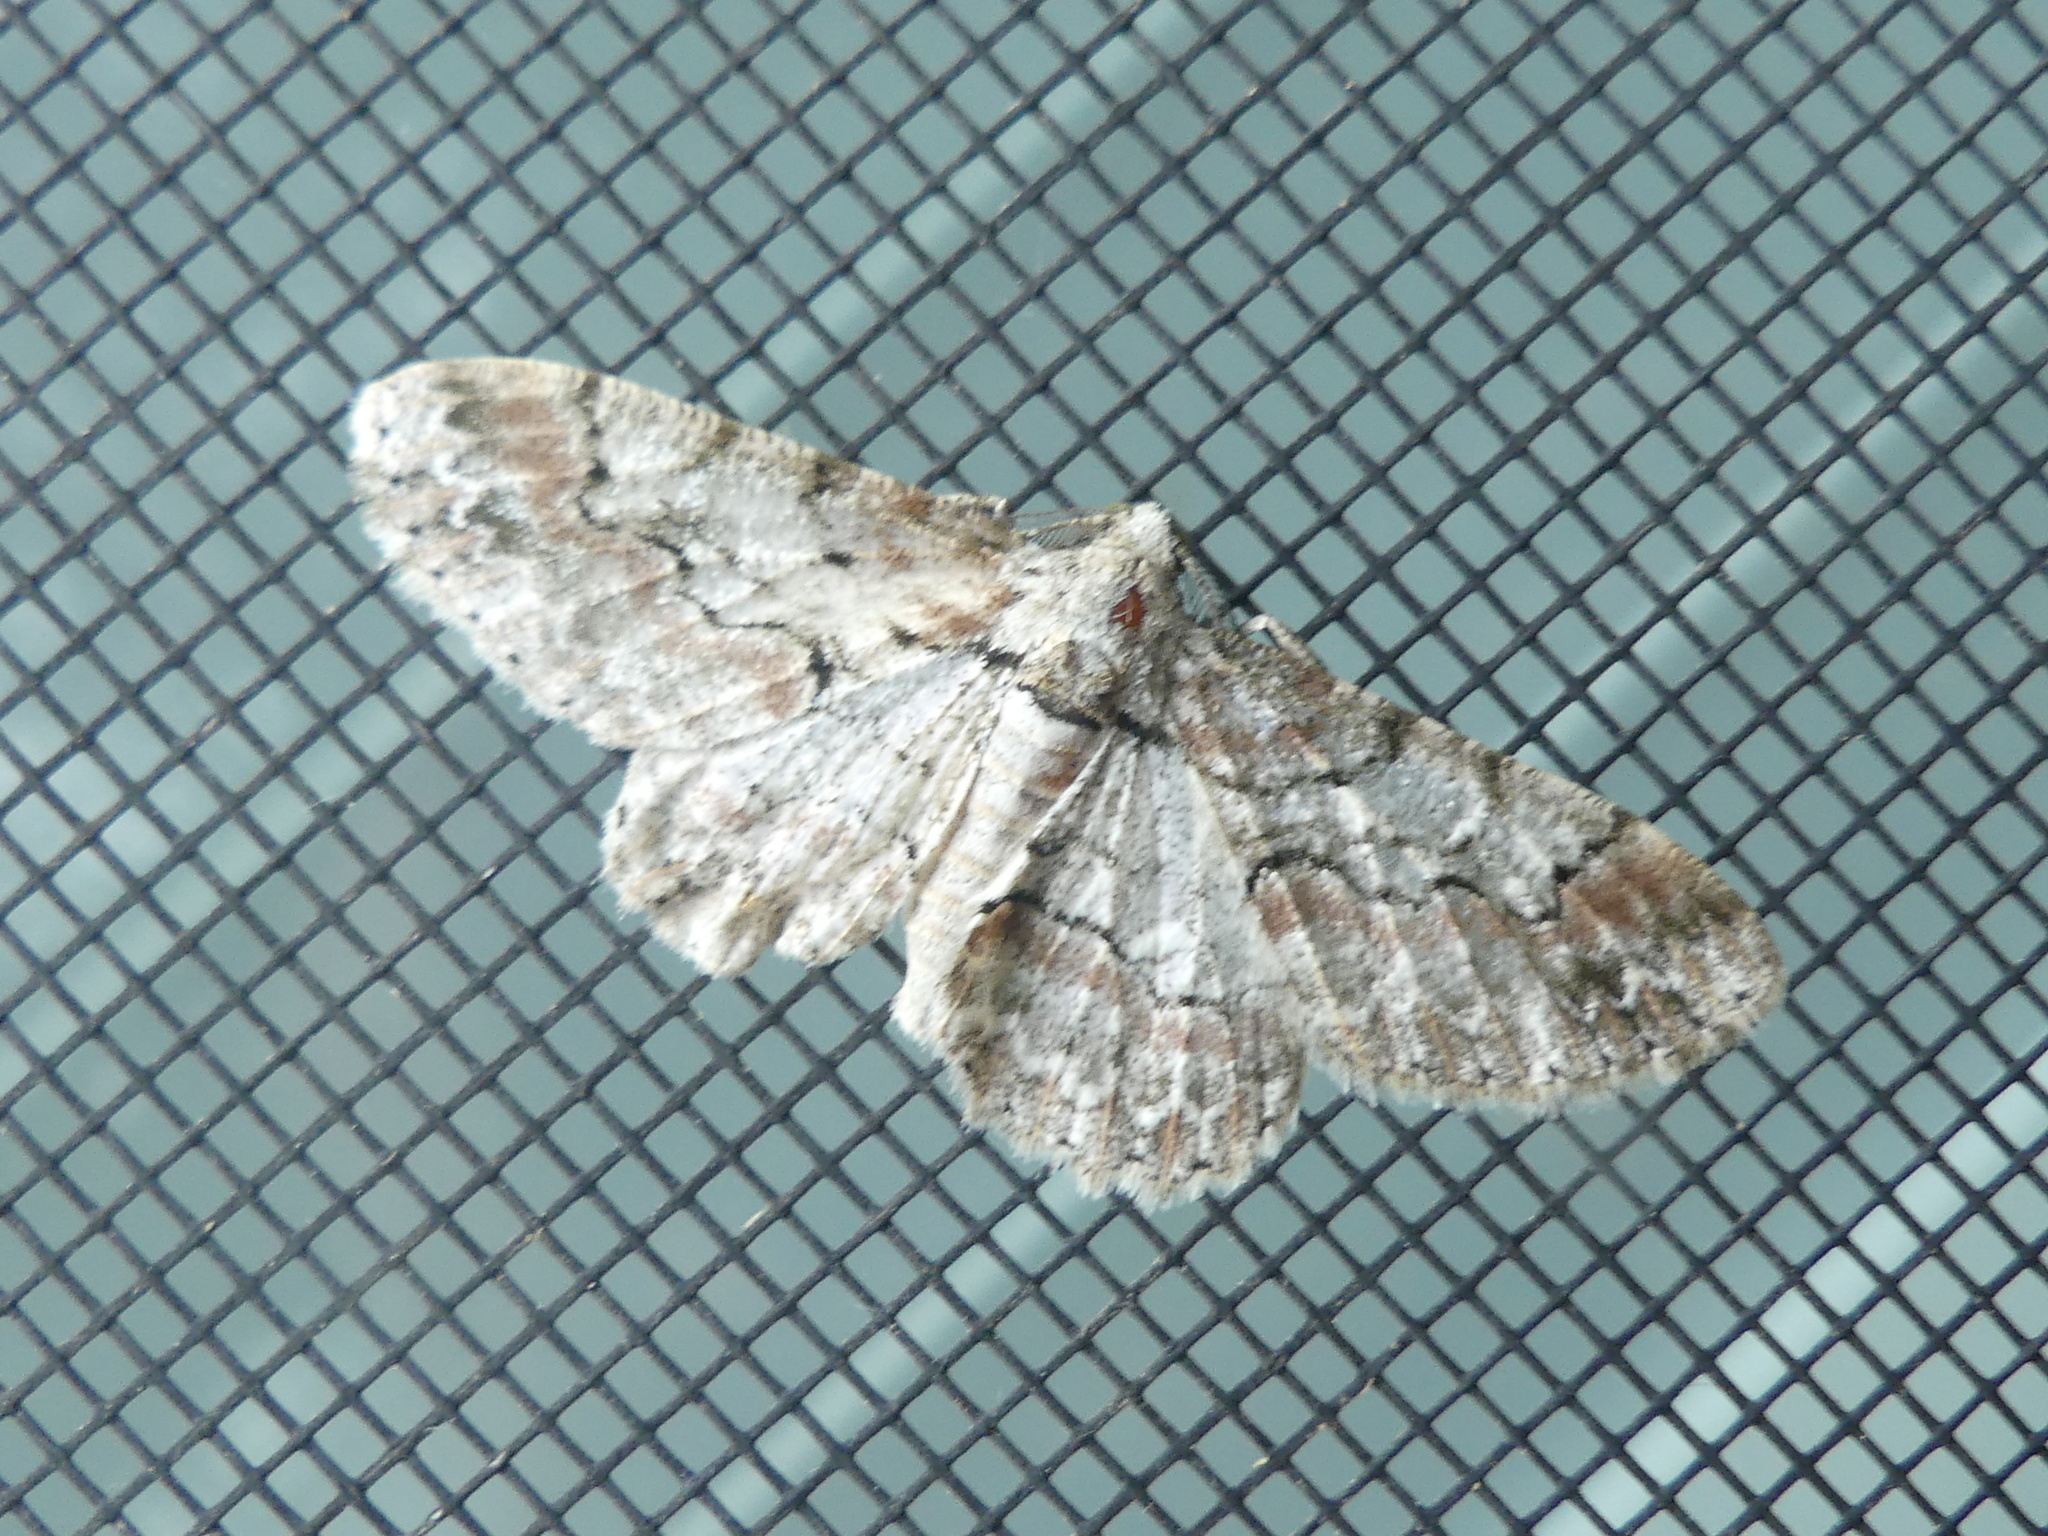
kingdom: Animalia
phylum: Arthropoda
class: Insecta
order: Lepidoptera
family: Geometridae
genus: Iridopsis
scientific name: Iridopsis defectaria
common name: Brown-shaded gray
